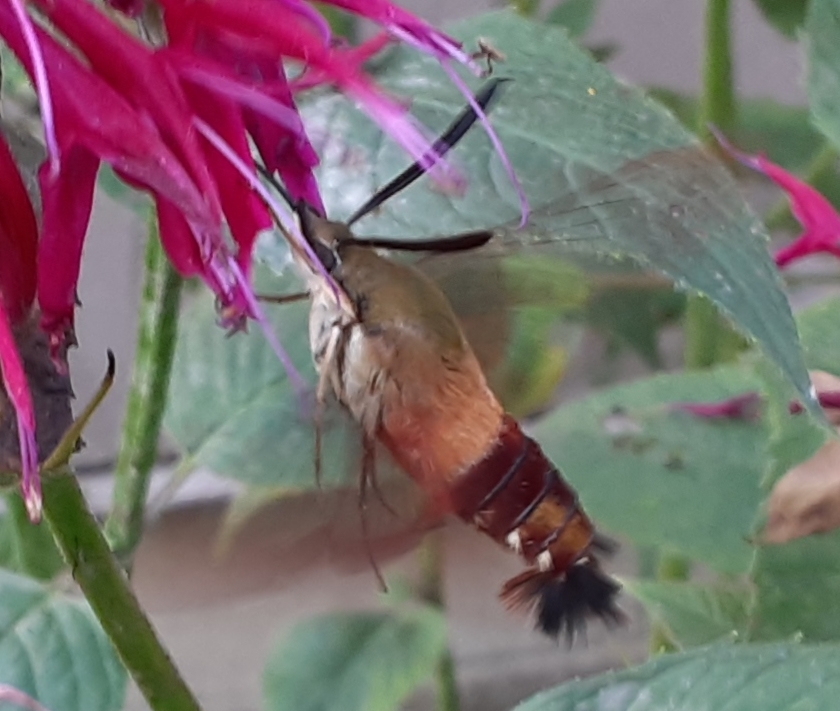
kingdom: Animalia
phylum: Arthropoda
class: Insecta
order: Lepidoptera
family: Sphingidae
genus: Hemaris
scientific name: Hemaris thysbe
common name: Common clear-wing
